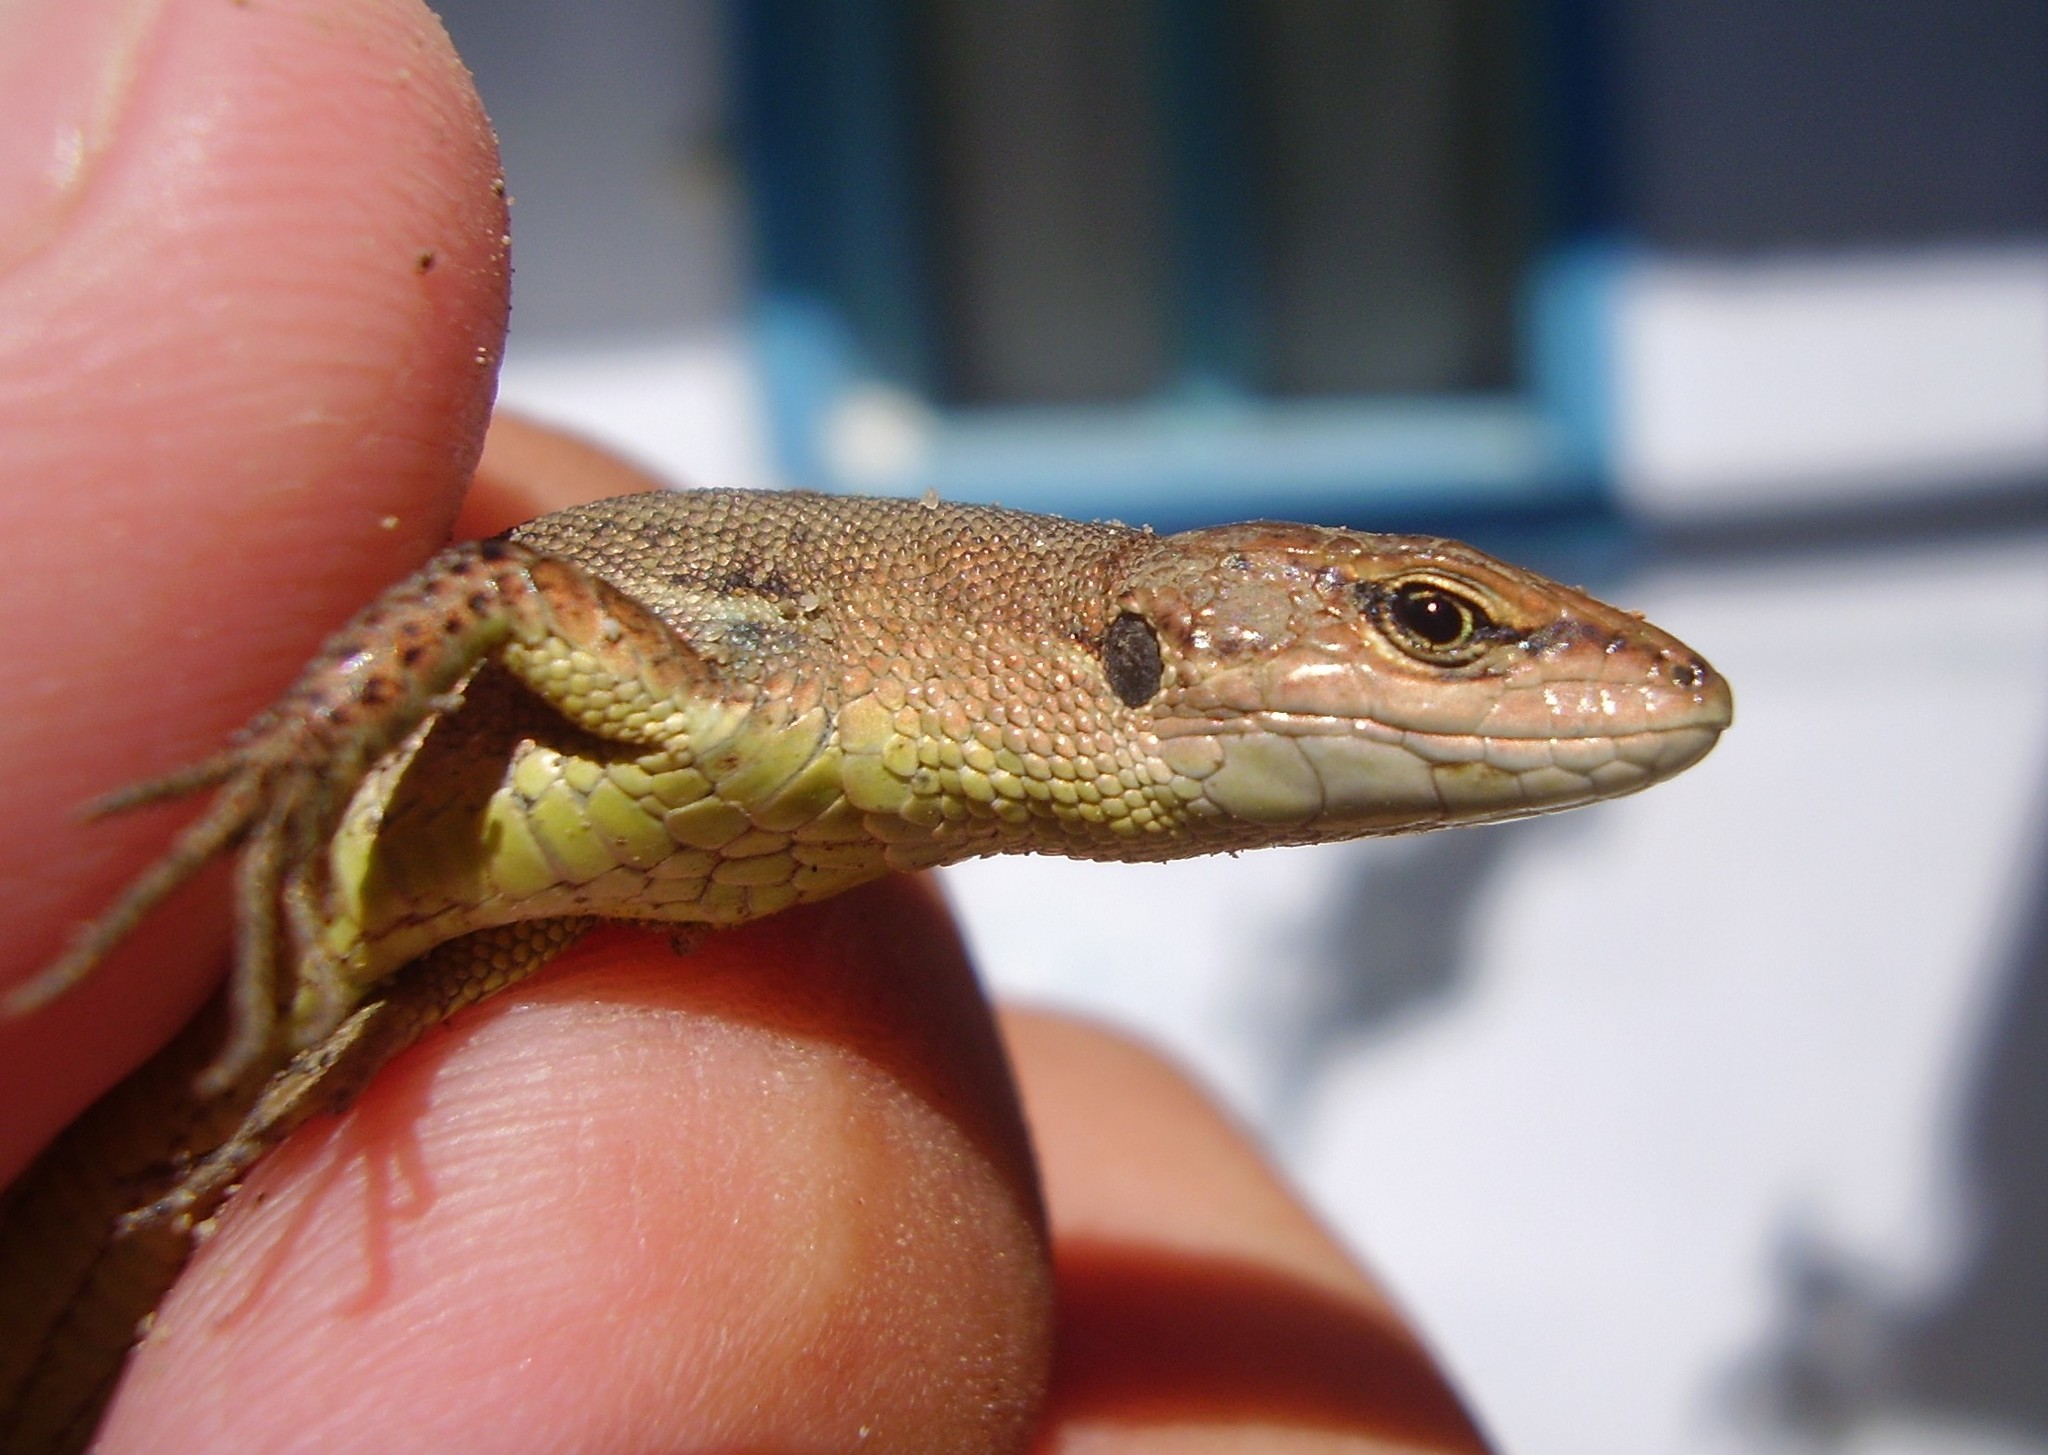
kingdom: Animalia
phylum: Chordata
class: Squamata
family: Lacertidae
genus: Darevskia
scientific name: Darevskia praticola
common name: Meadow lizard
